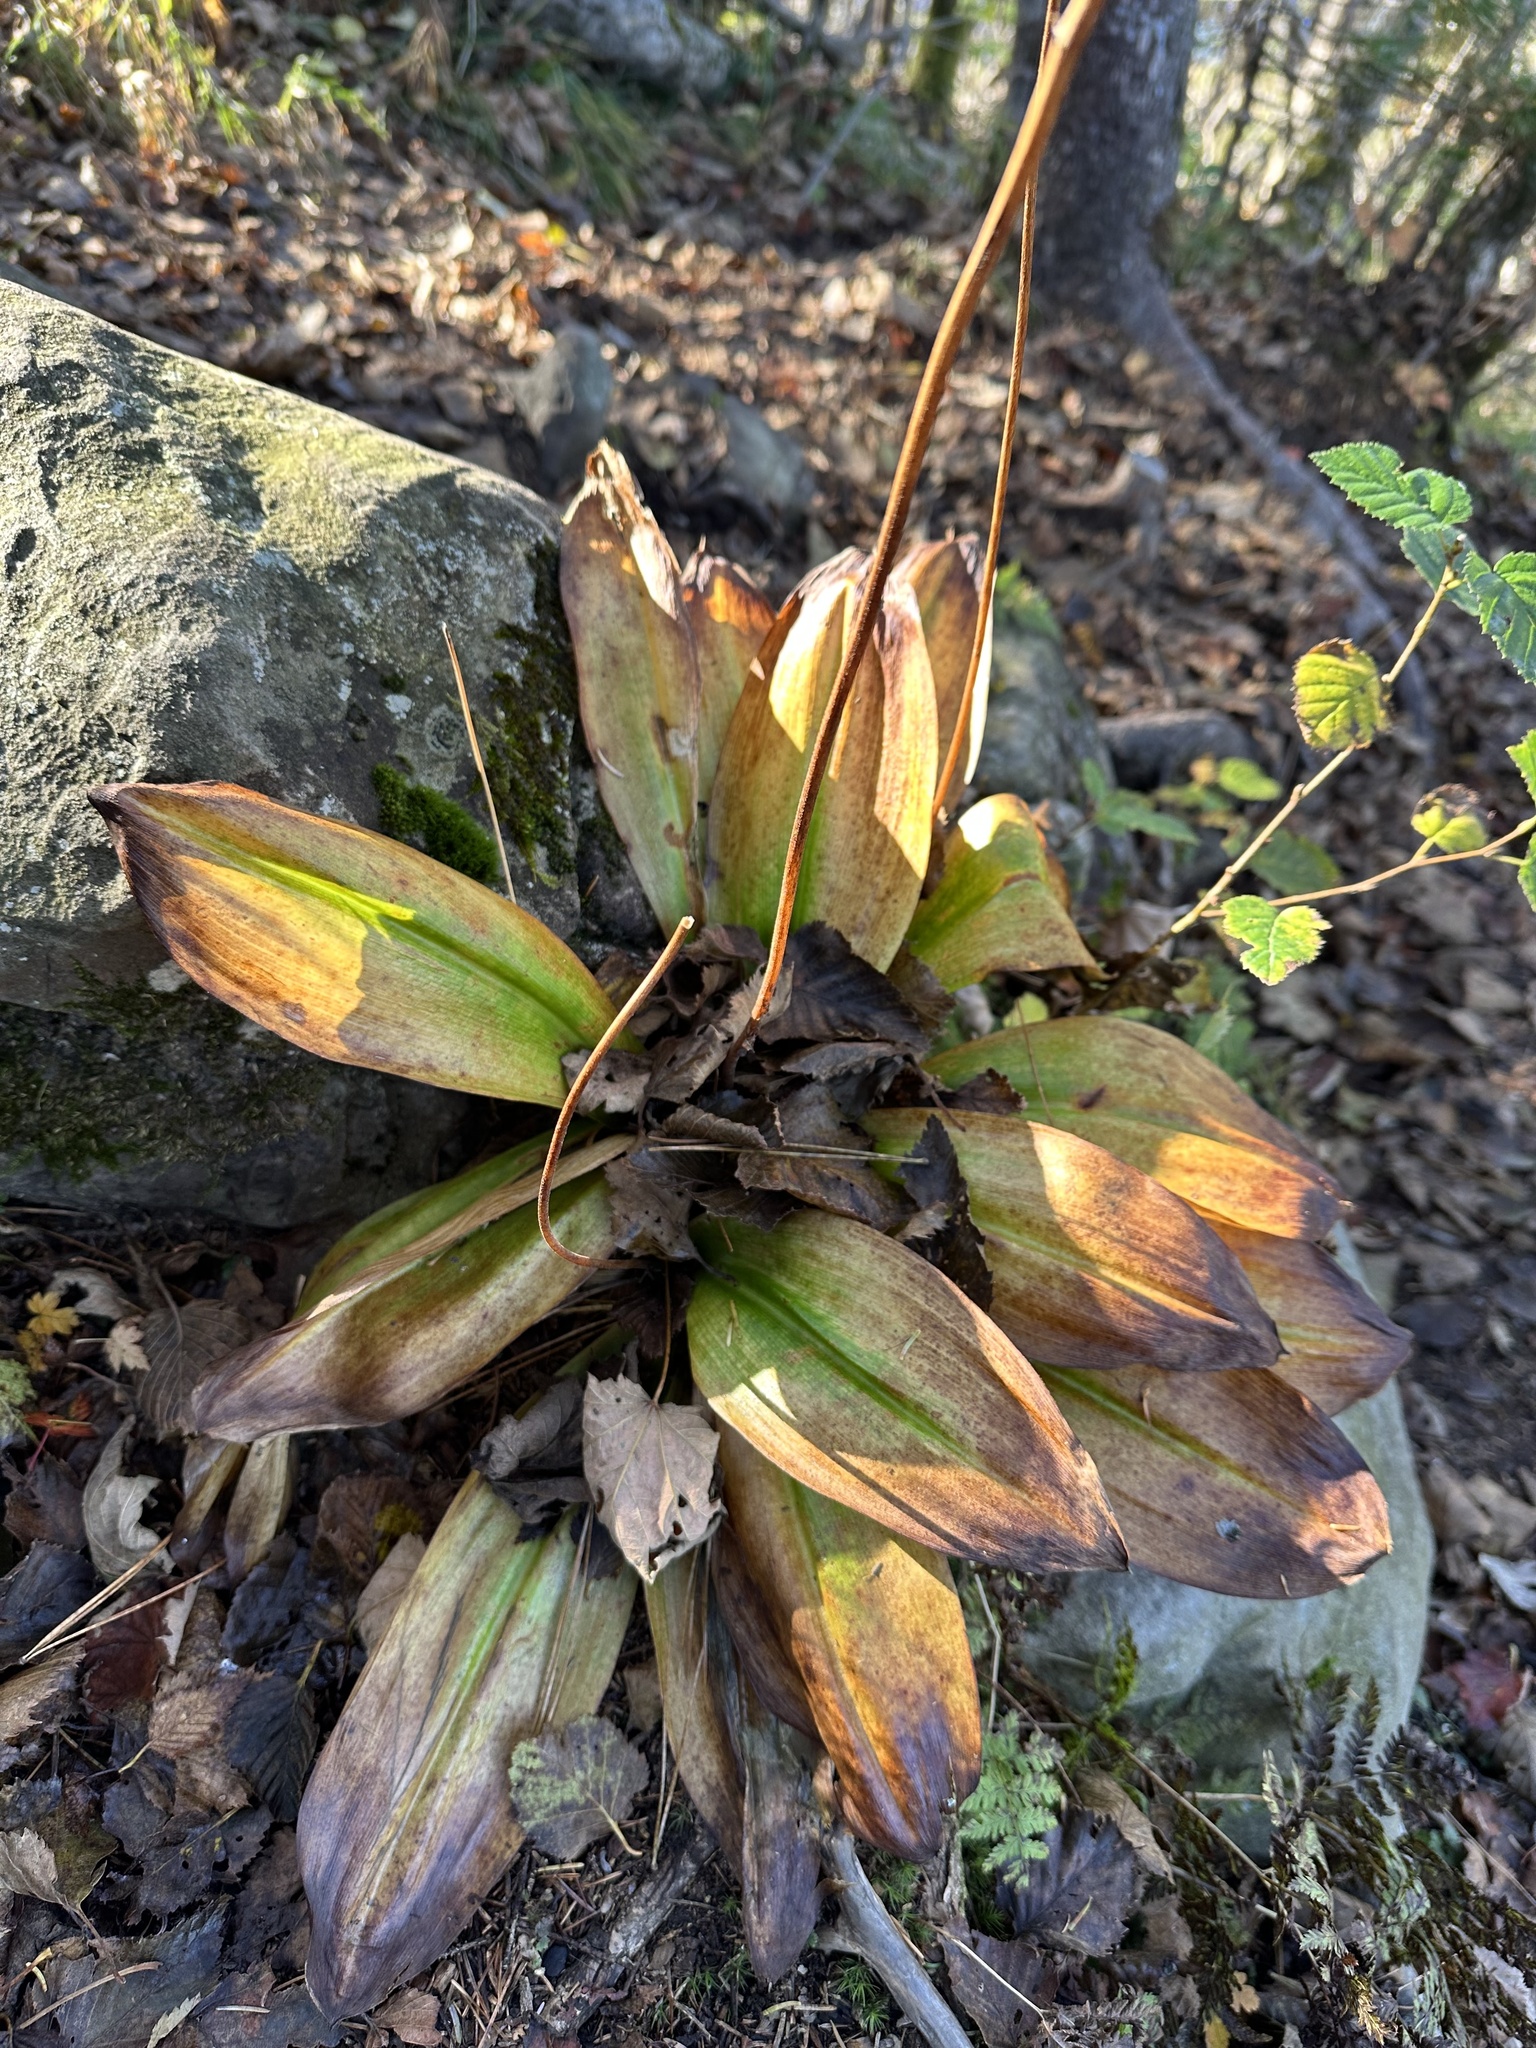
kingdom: Plantae
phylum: Tracheophyta
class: Liliopsida
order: Liliales
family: Liliaceae
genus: Clintonia
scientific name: Clintonia udensis
